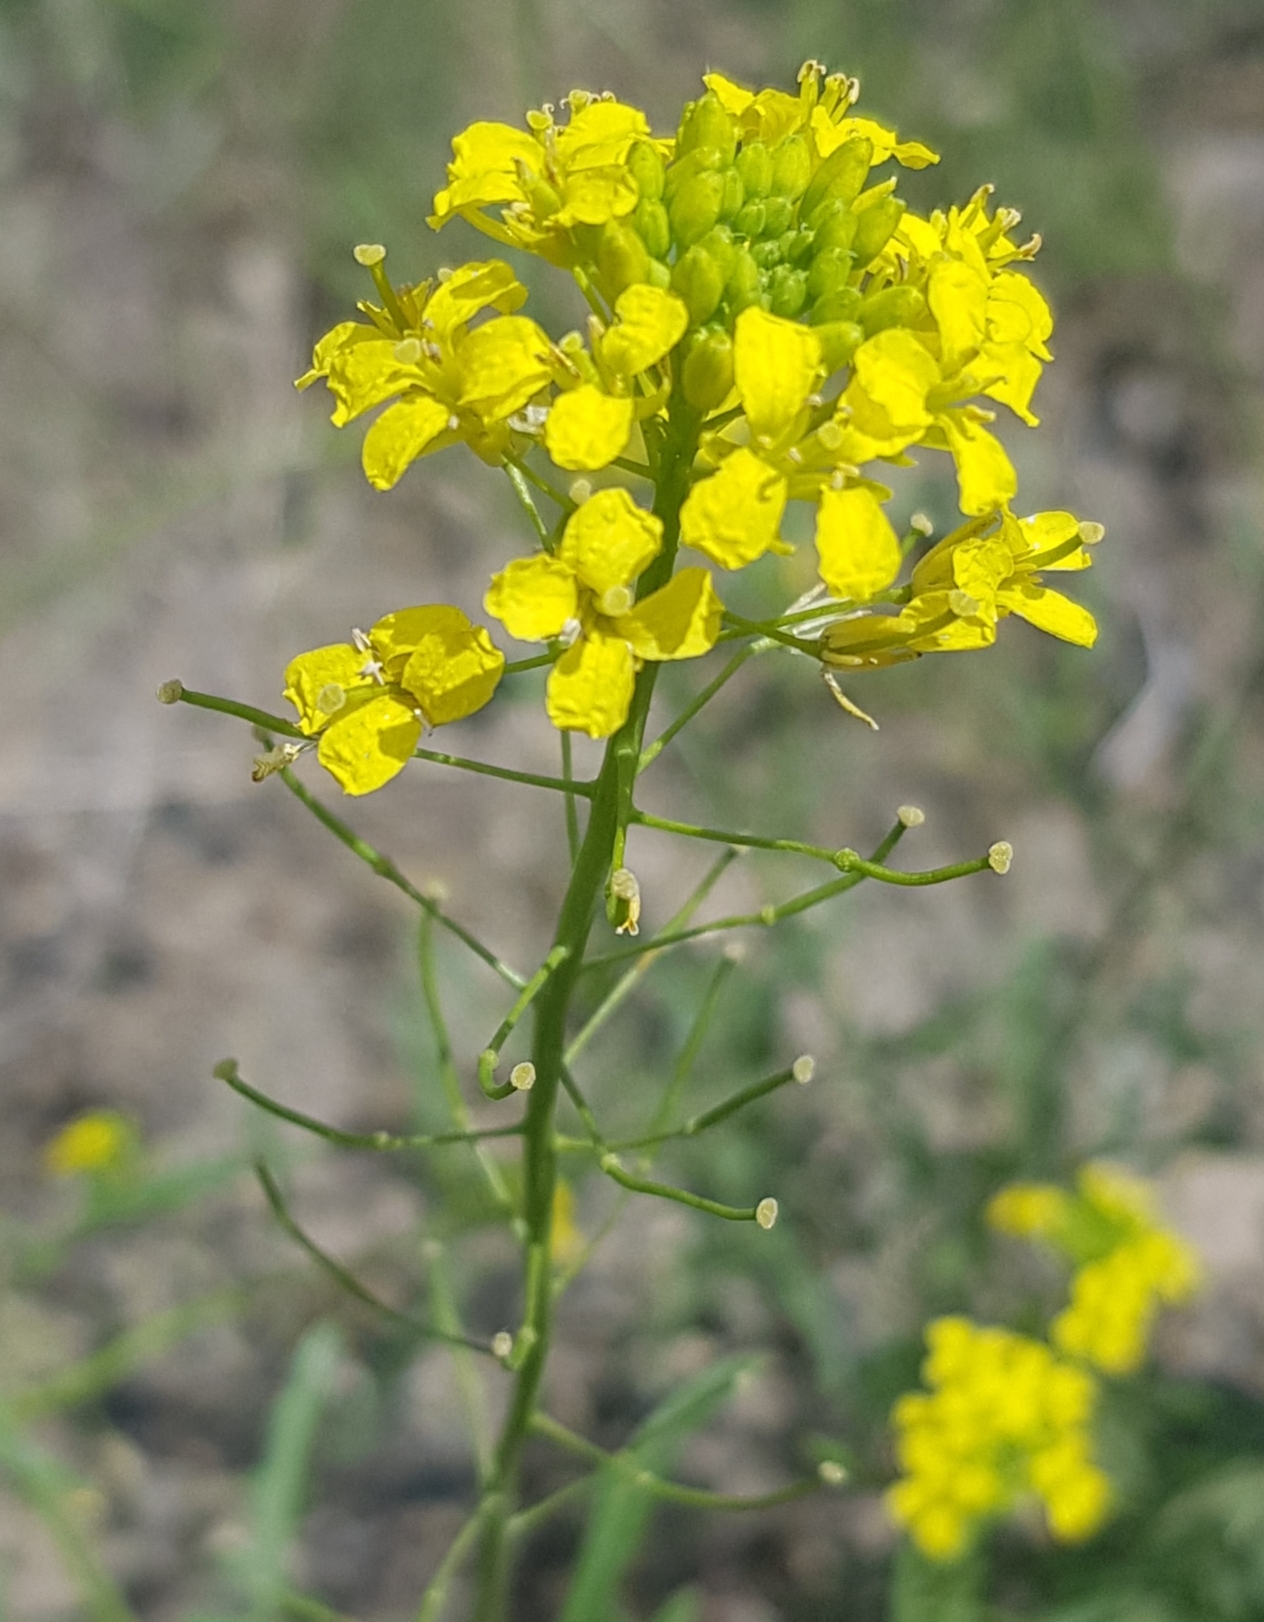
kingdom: Plantae
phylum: Tracheophyta
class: Magnoliopsida
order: Brassicales
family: Brassicaceae
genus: Erysimum
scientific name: Erysimum cheiranthoides
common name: Treacle mustard
